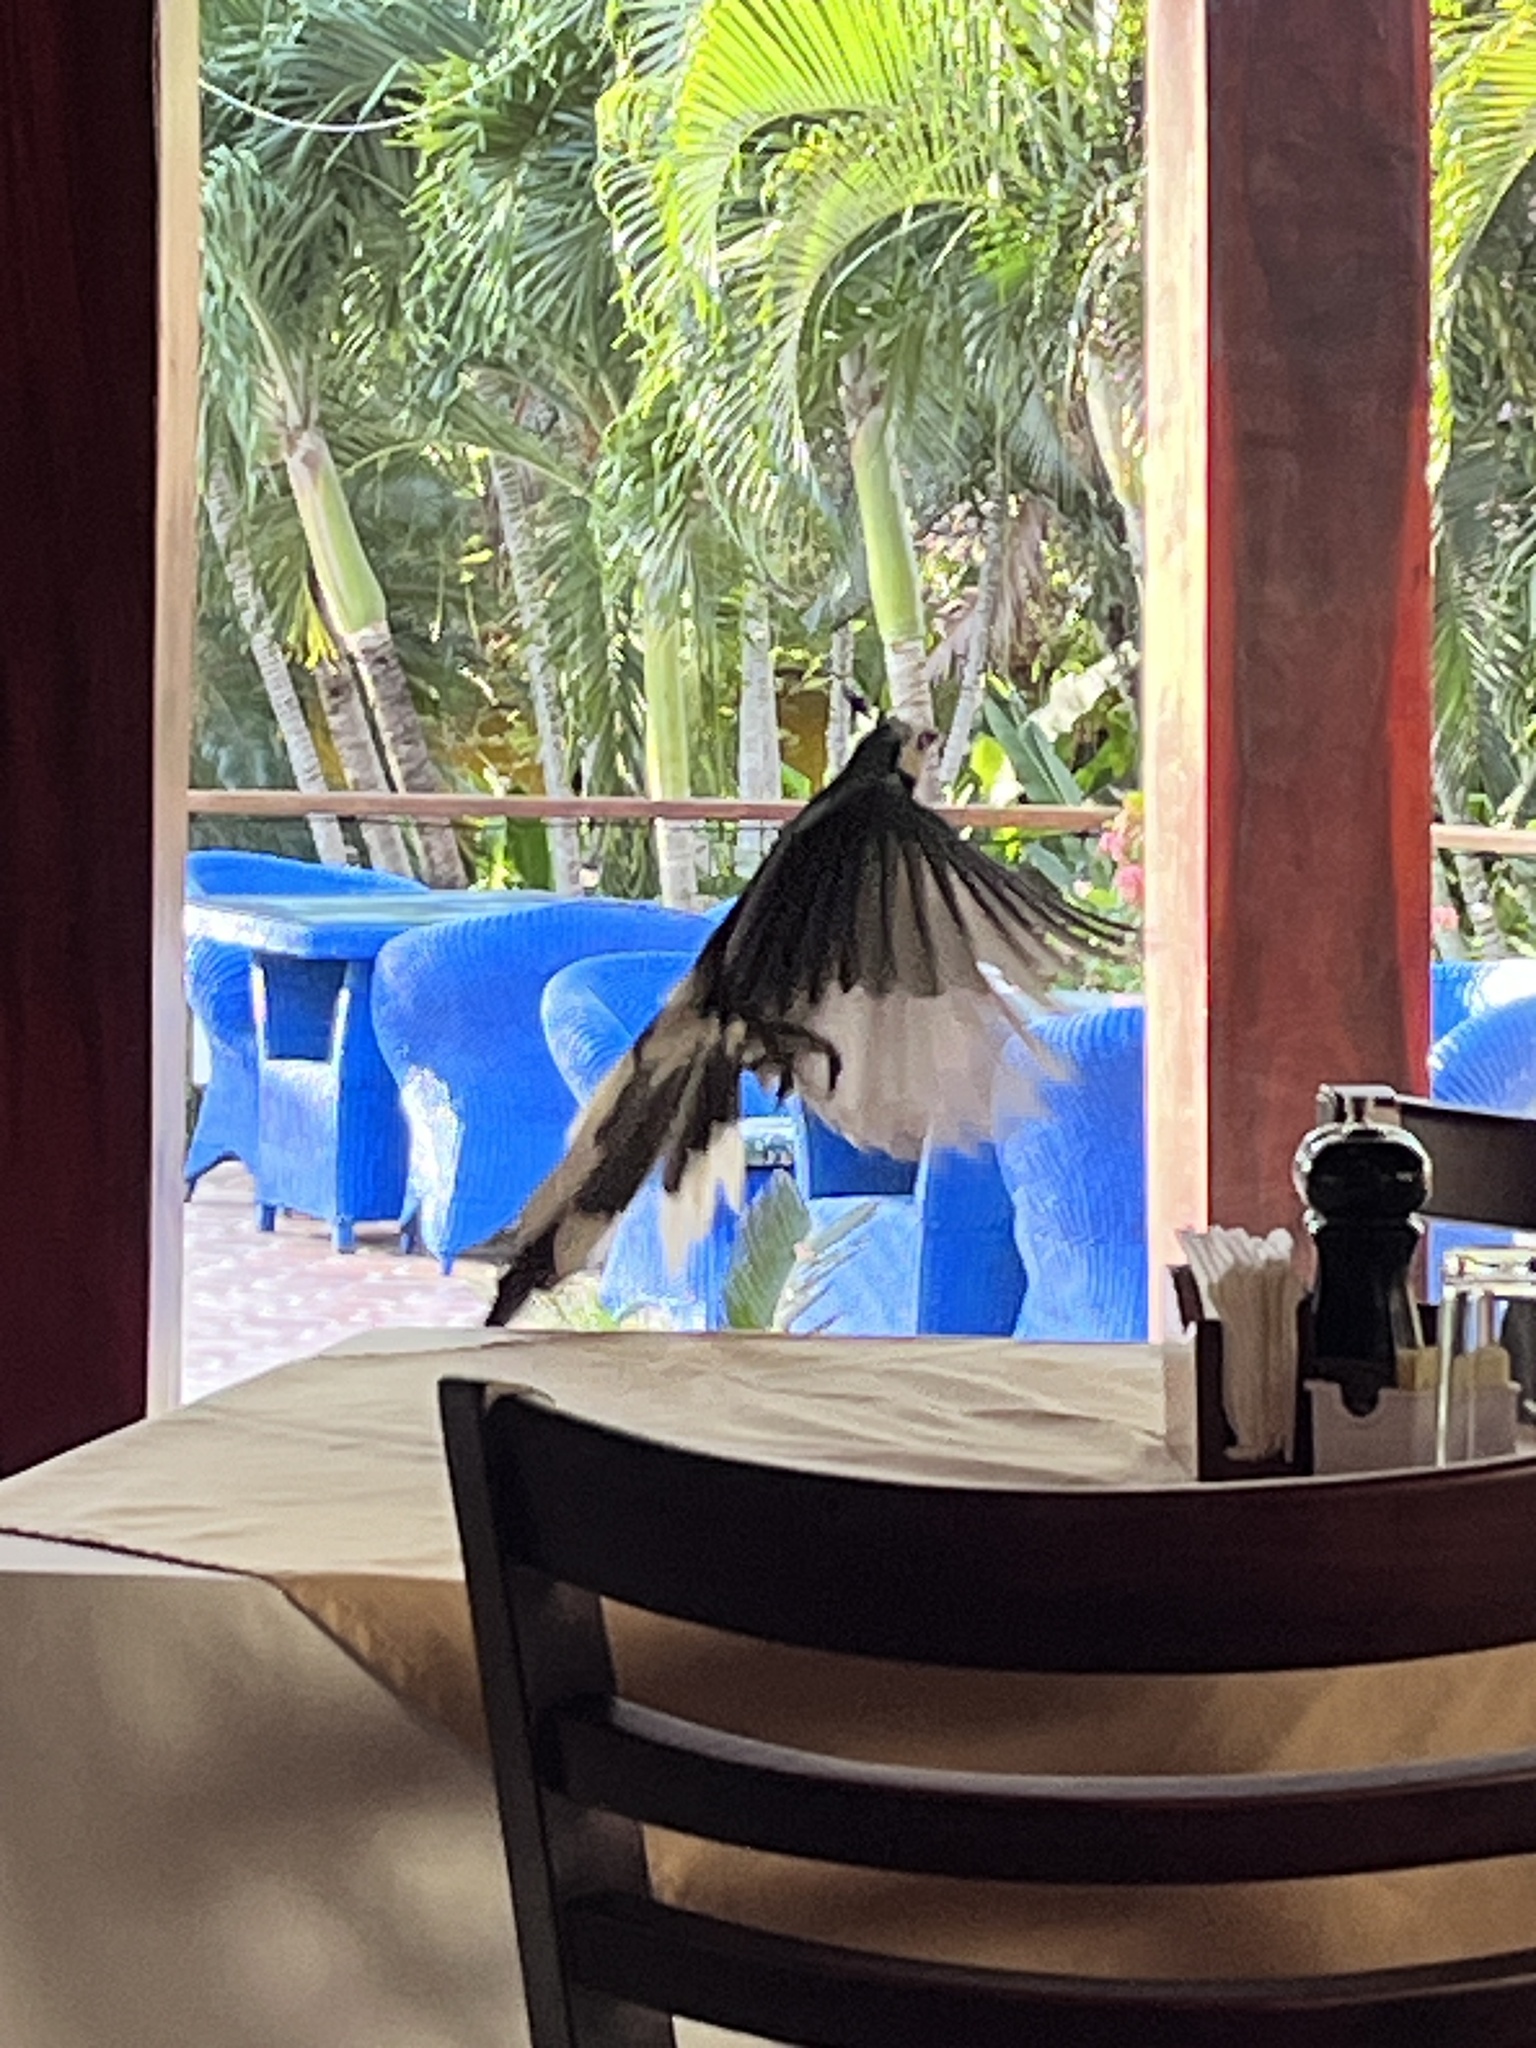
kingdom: Animalia
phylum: Chordata
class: Aves
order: Passeriformes
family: Corvidae
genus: Calocitta
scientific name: Calocitta formosa
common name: White-throated magpie-jay
